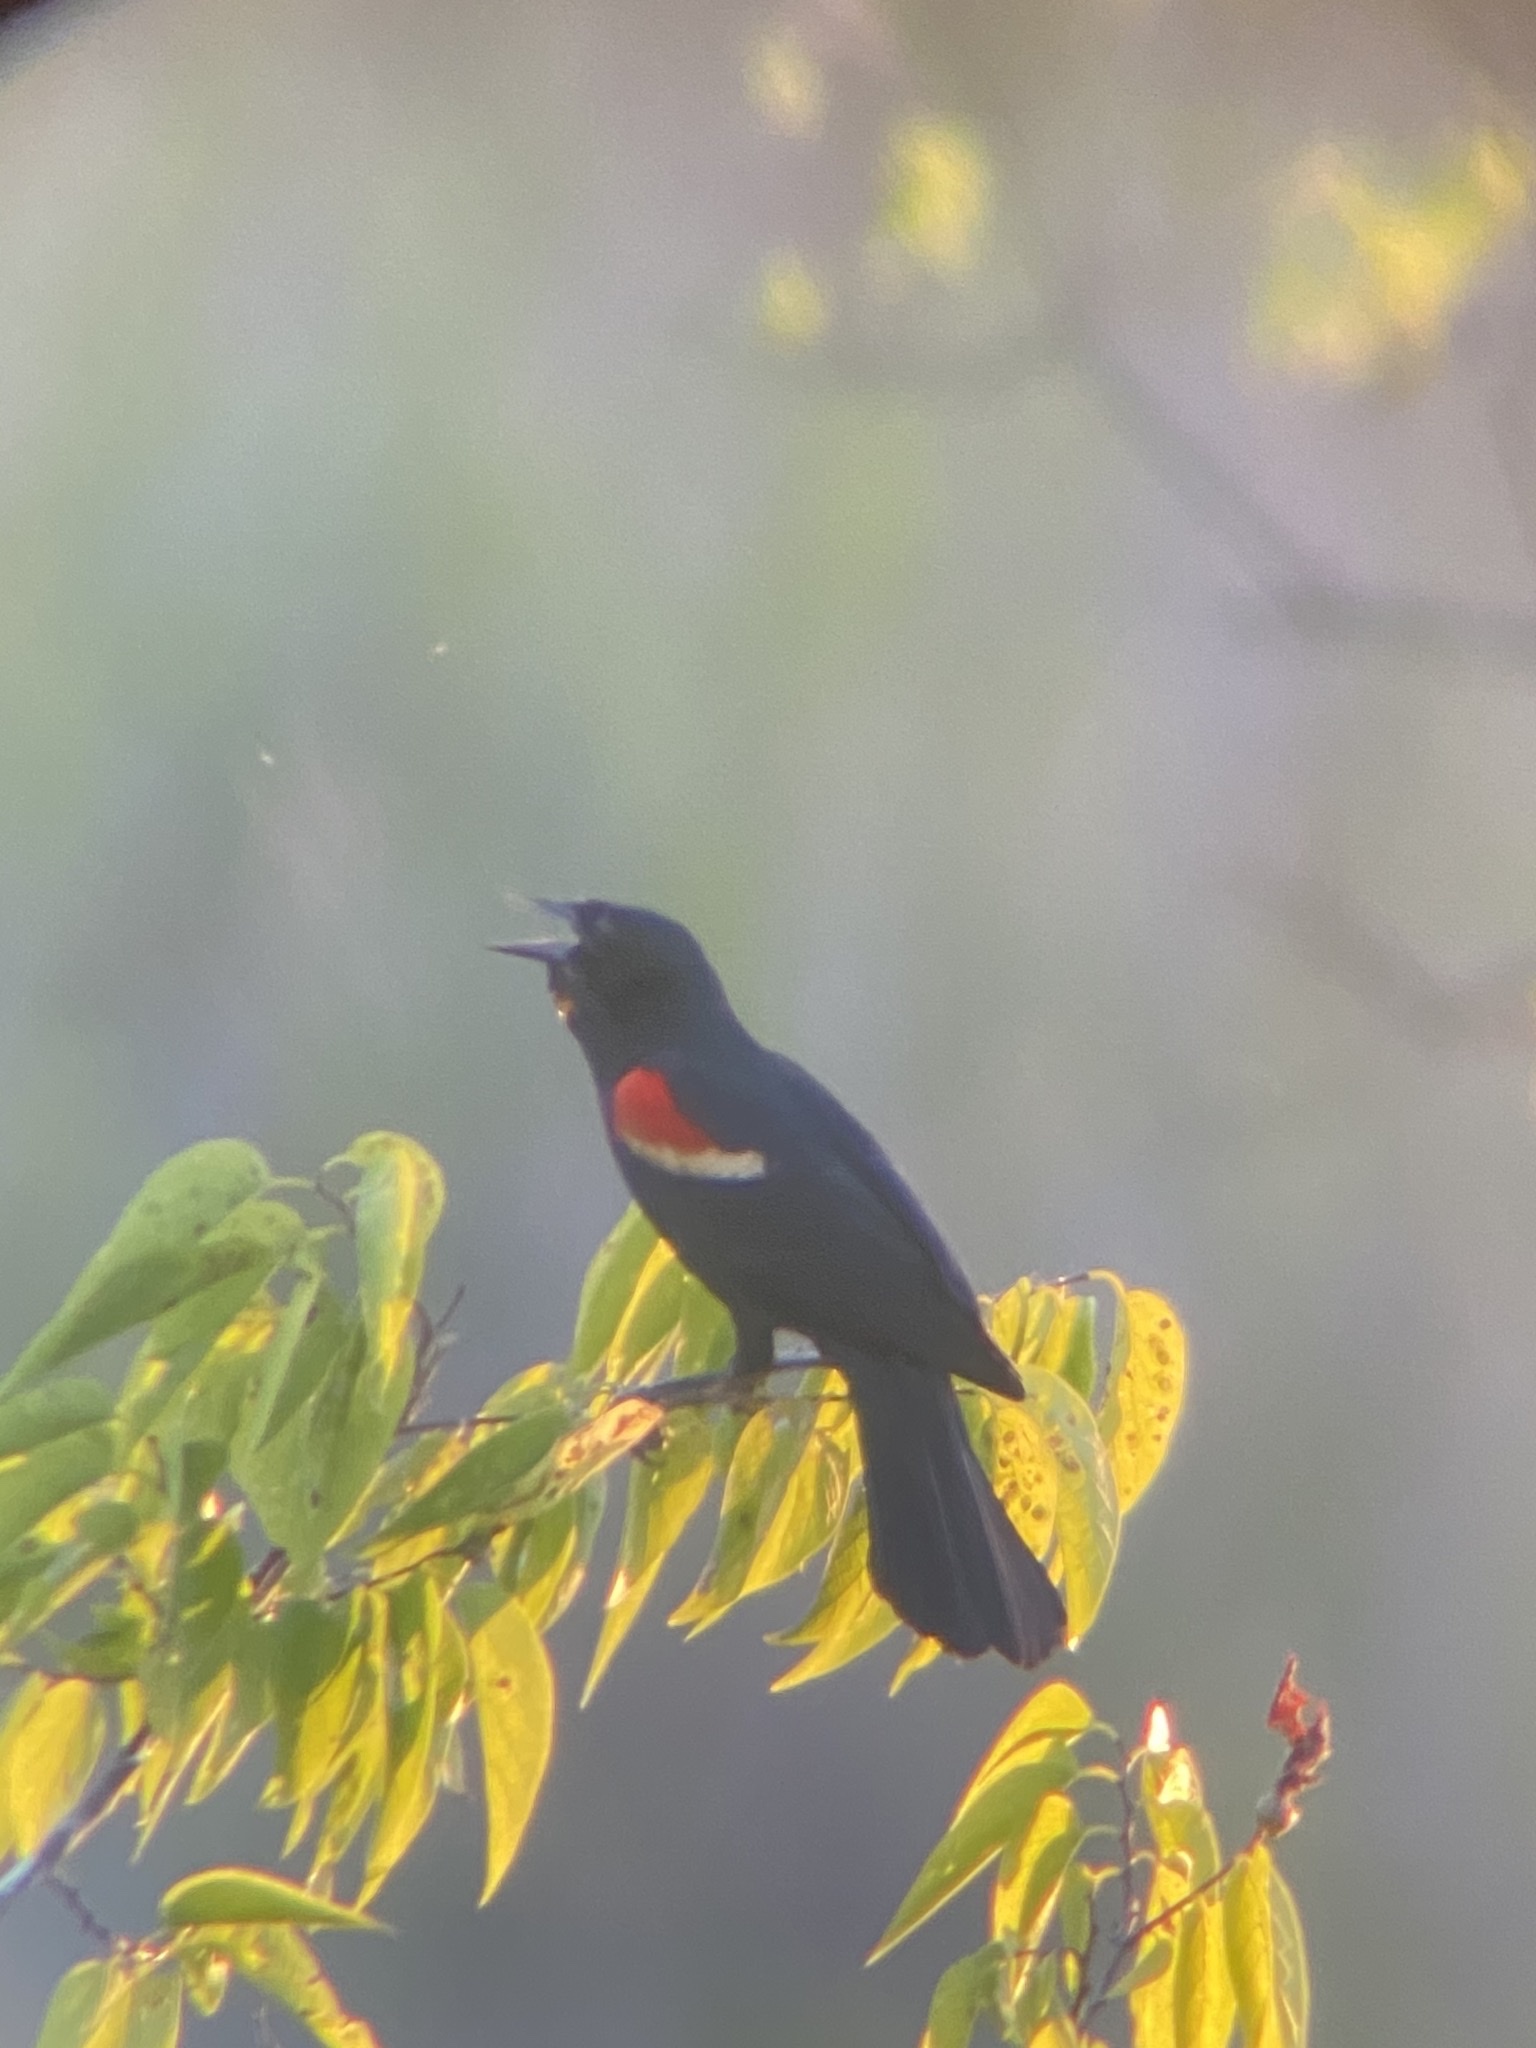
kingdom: Animalia
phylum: Chordata
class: Aves
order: Passeriformes
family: Icteridae
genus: Agelaius
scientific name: Agelaius phoeniceus
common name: Red-winged blackbird
